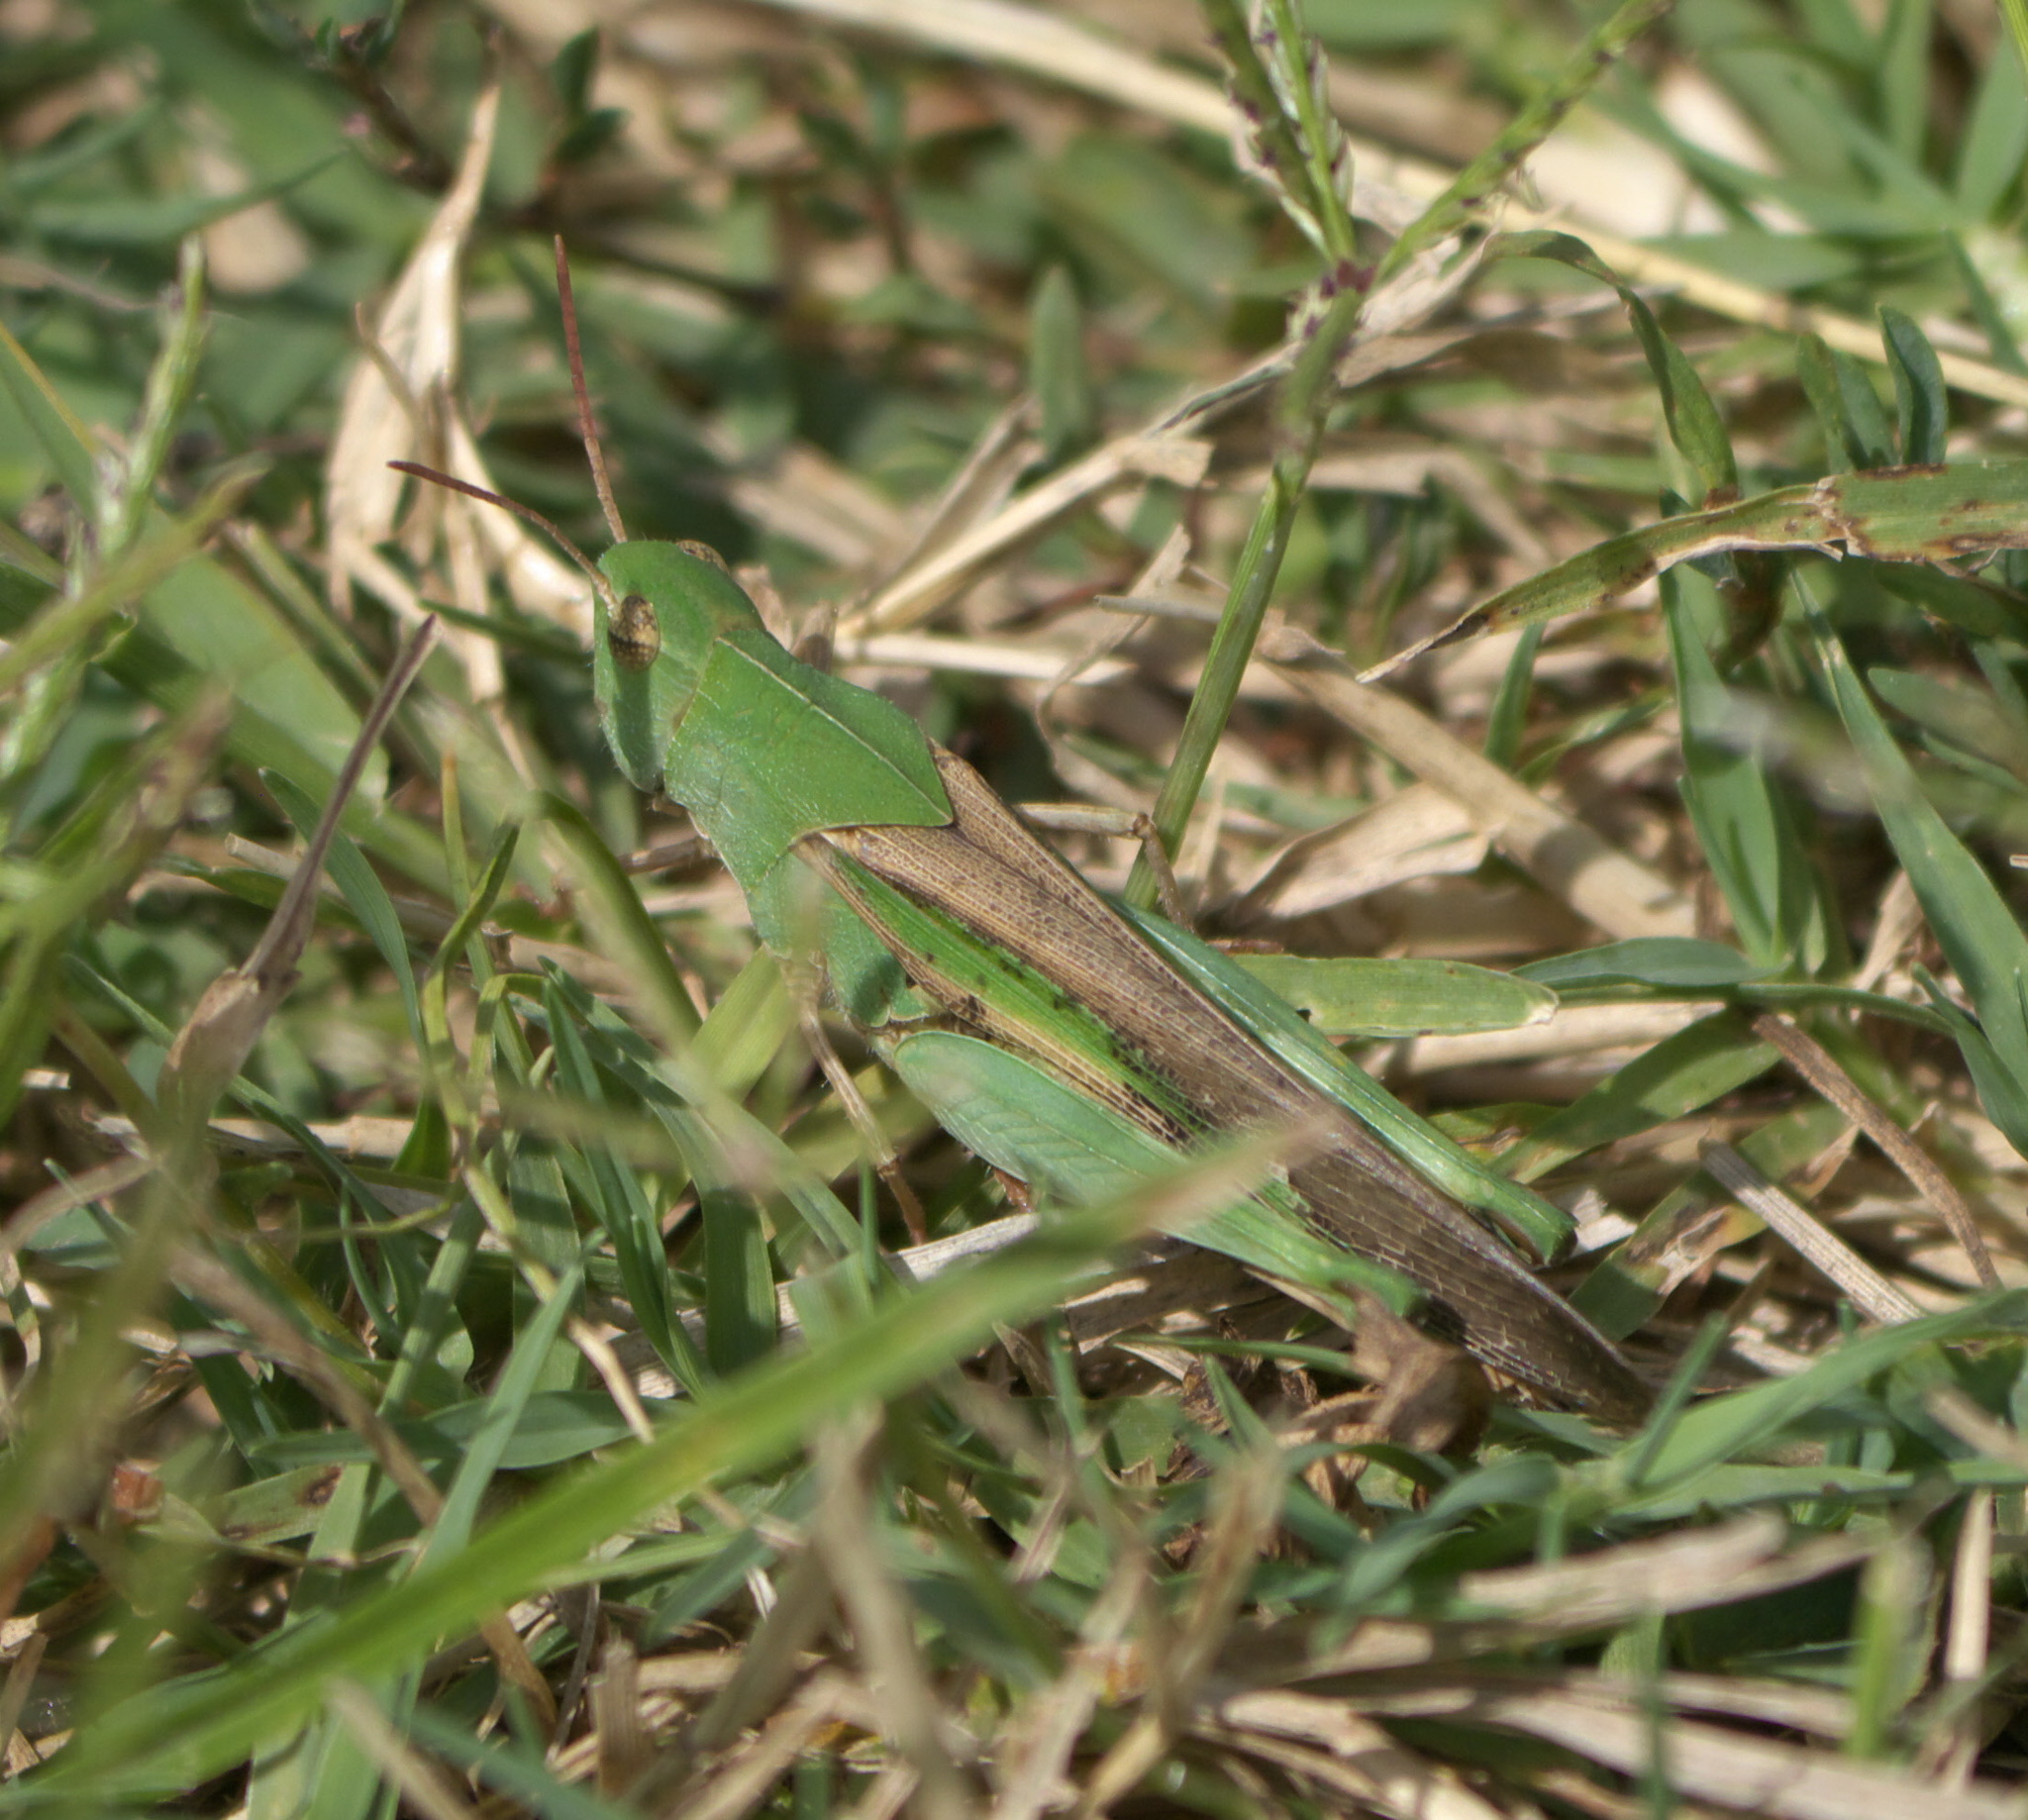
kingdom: Animalia
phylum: Arthropoda
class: Insecta
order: Orthoptera
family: Acrididae
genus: Chortophaga
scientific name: Chortophaga viridifasciata
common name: Green-striped grasshopper
